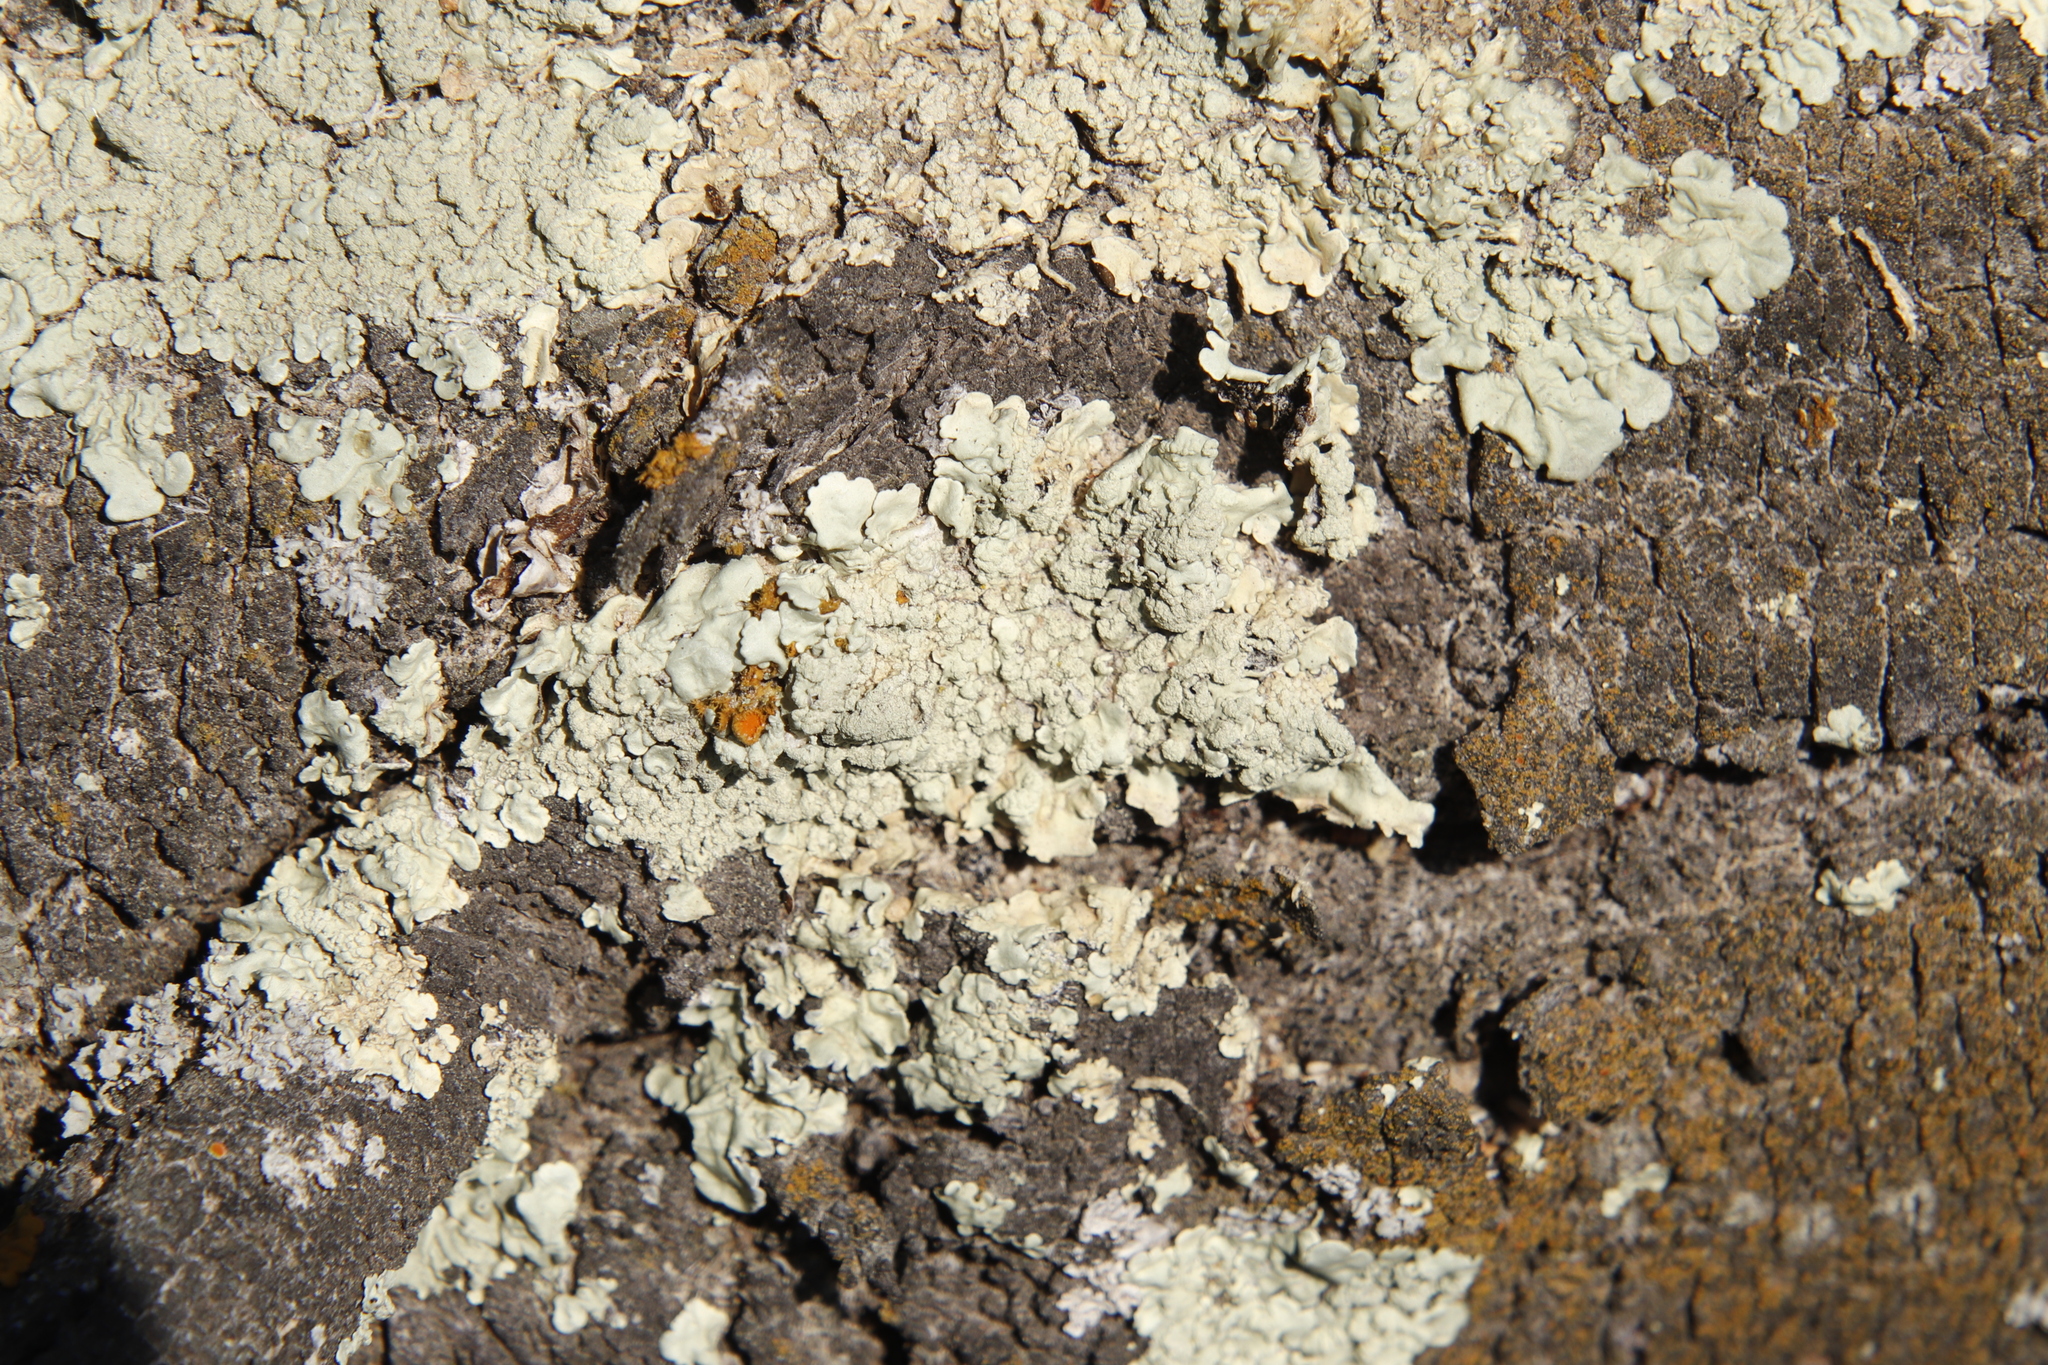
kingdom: Fungi
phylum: Ascomycota
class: Lecanoromycetes
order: Lecanorales
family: Parmeliaceae
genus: Flavoparmelia
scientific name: Flavoparmelia soredians
